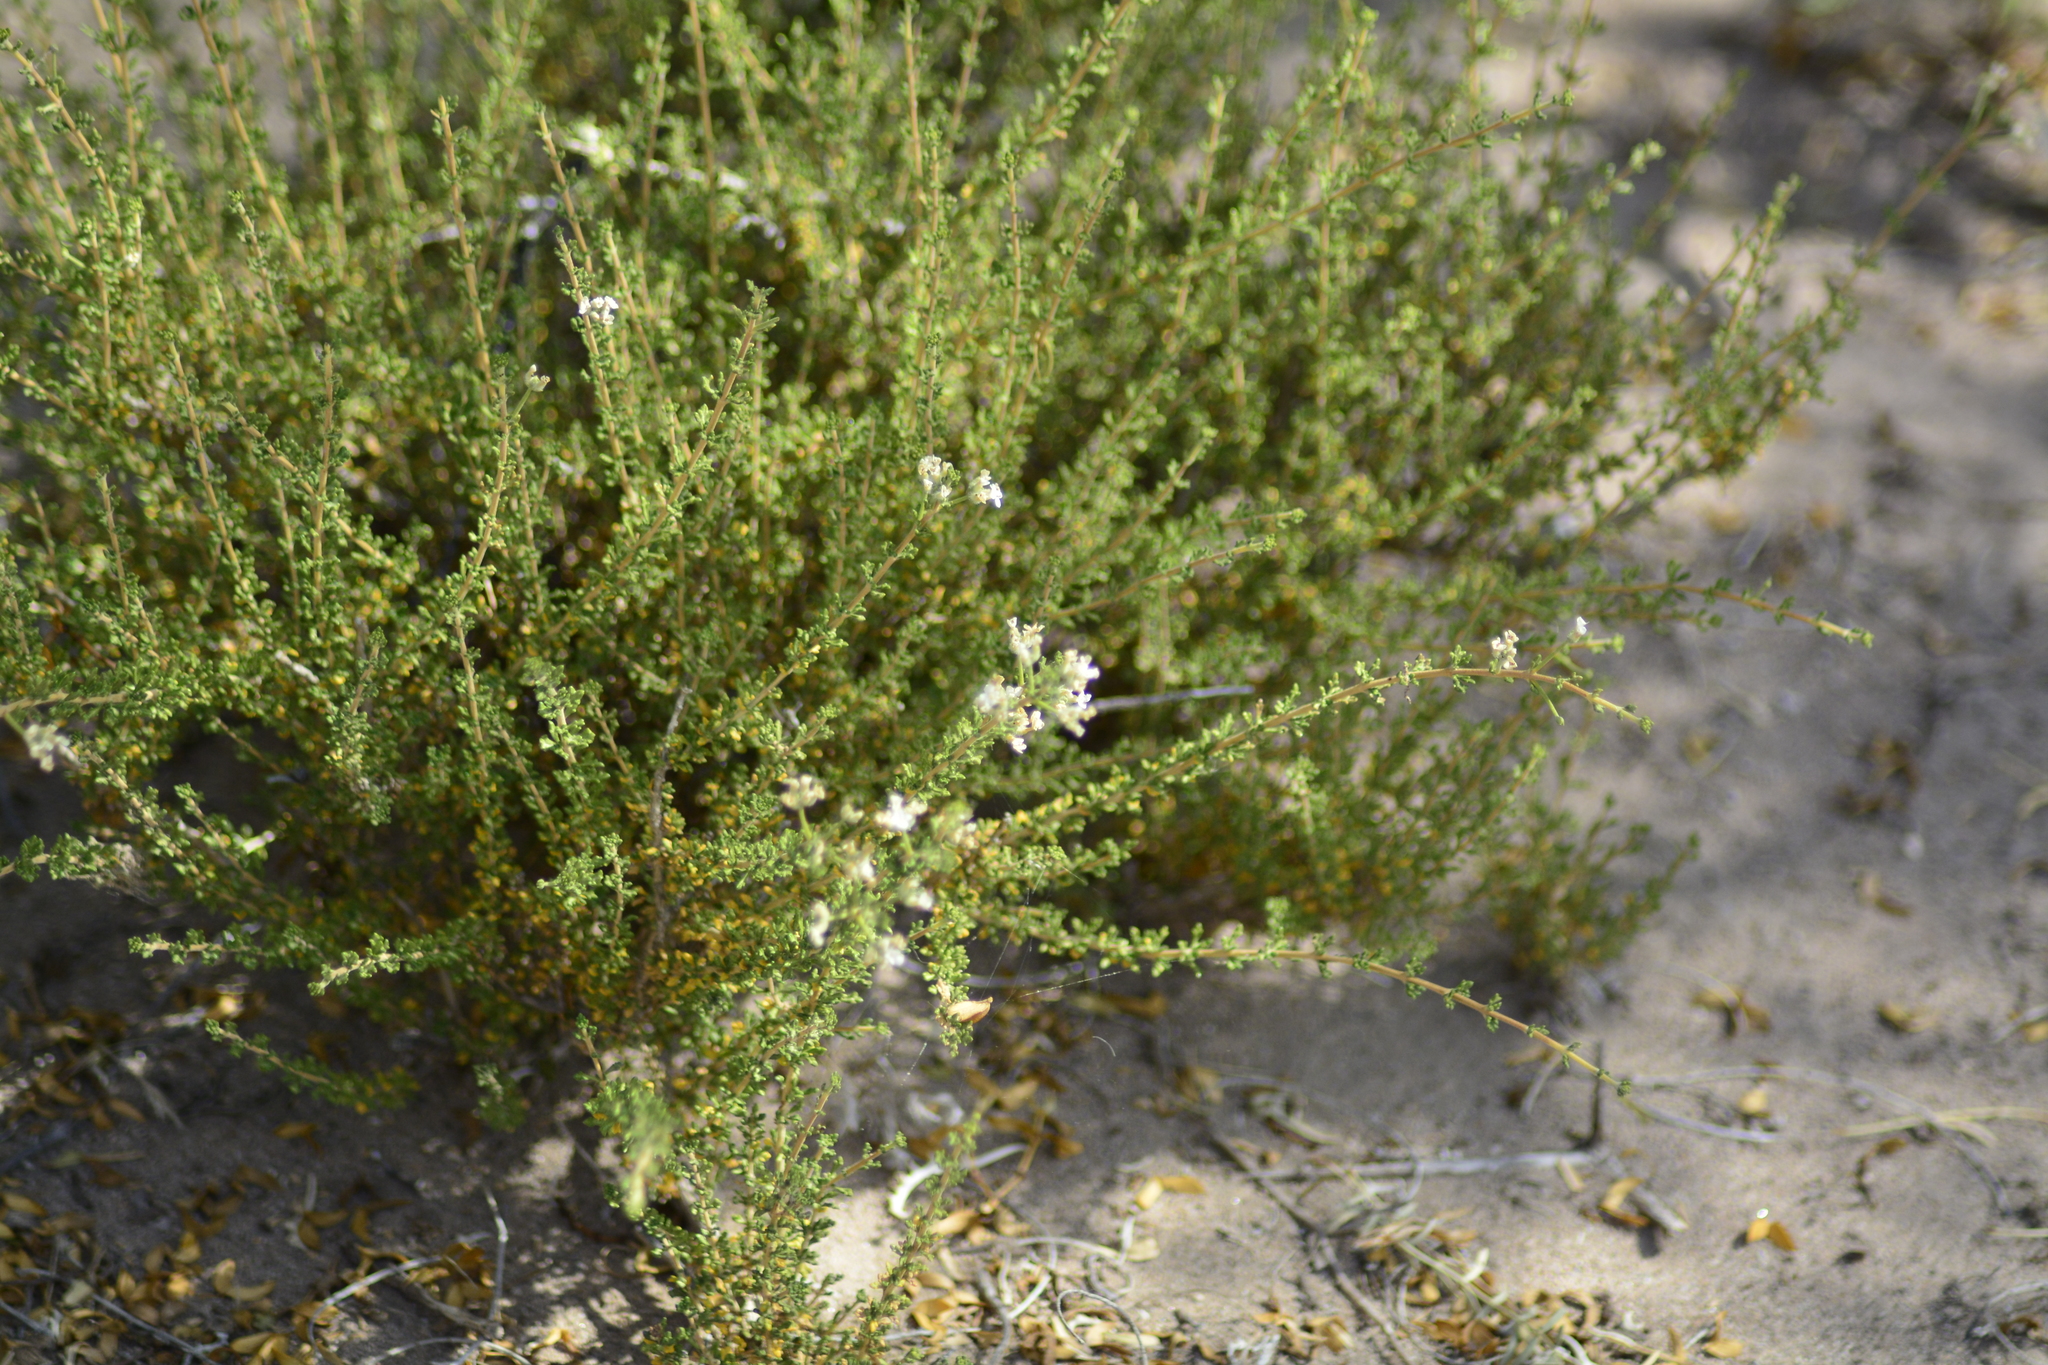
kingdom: Plantae
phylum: Tracheophyta
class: Magnoliopsida
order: Lamiales
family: Verbenaceae
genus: Acantholippia
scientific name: Acantholippia seriphioides
